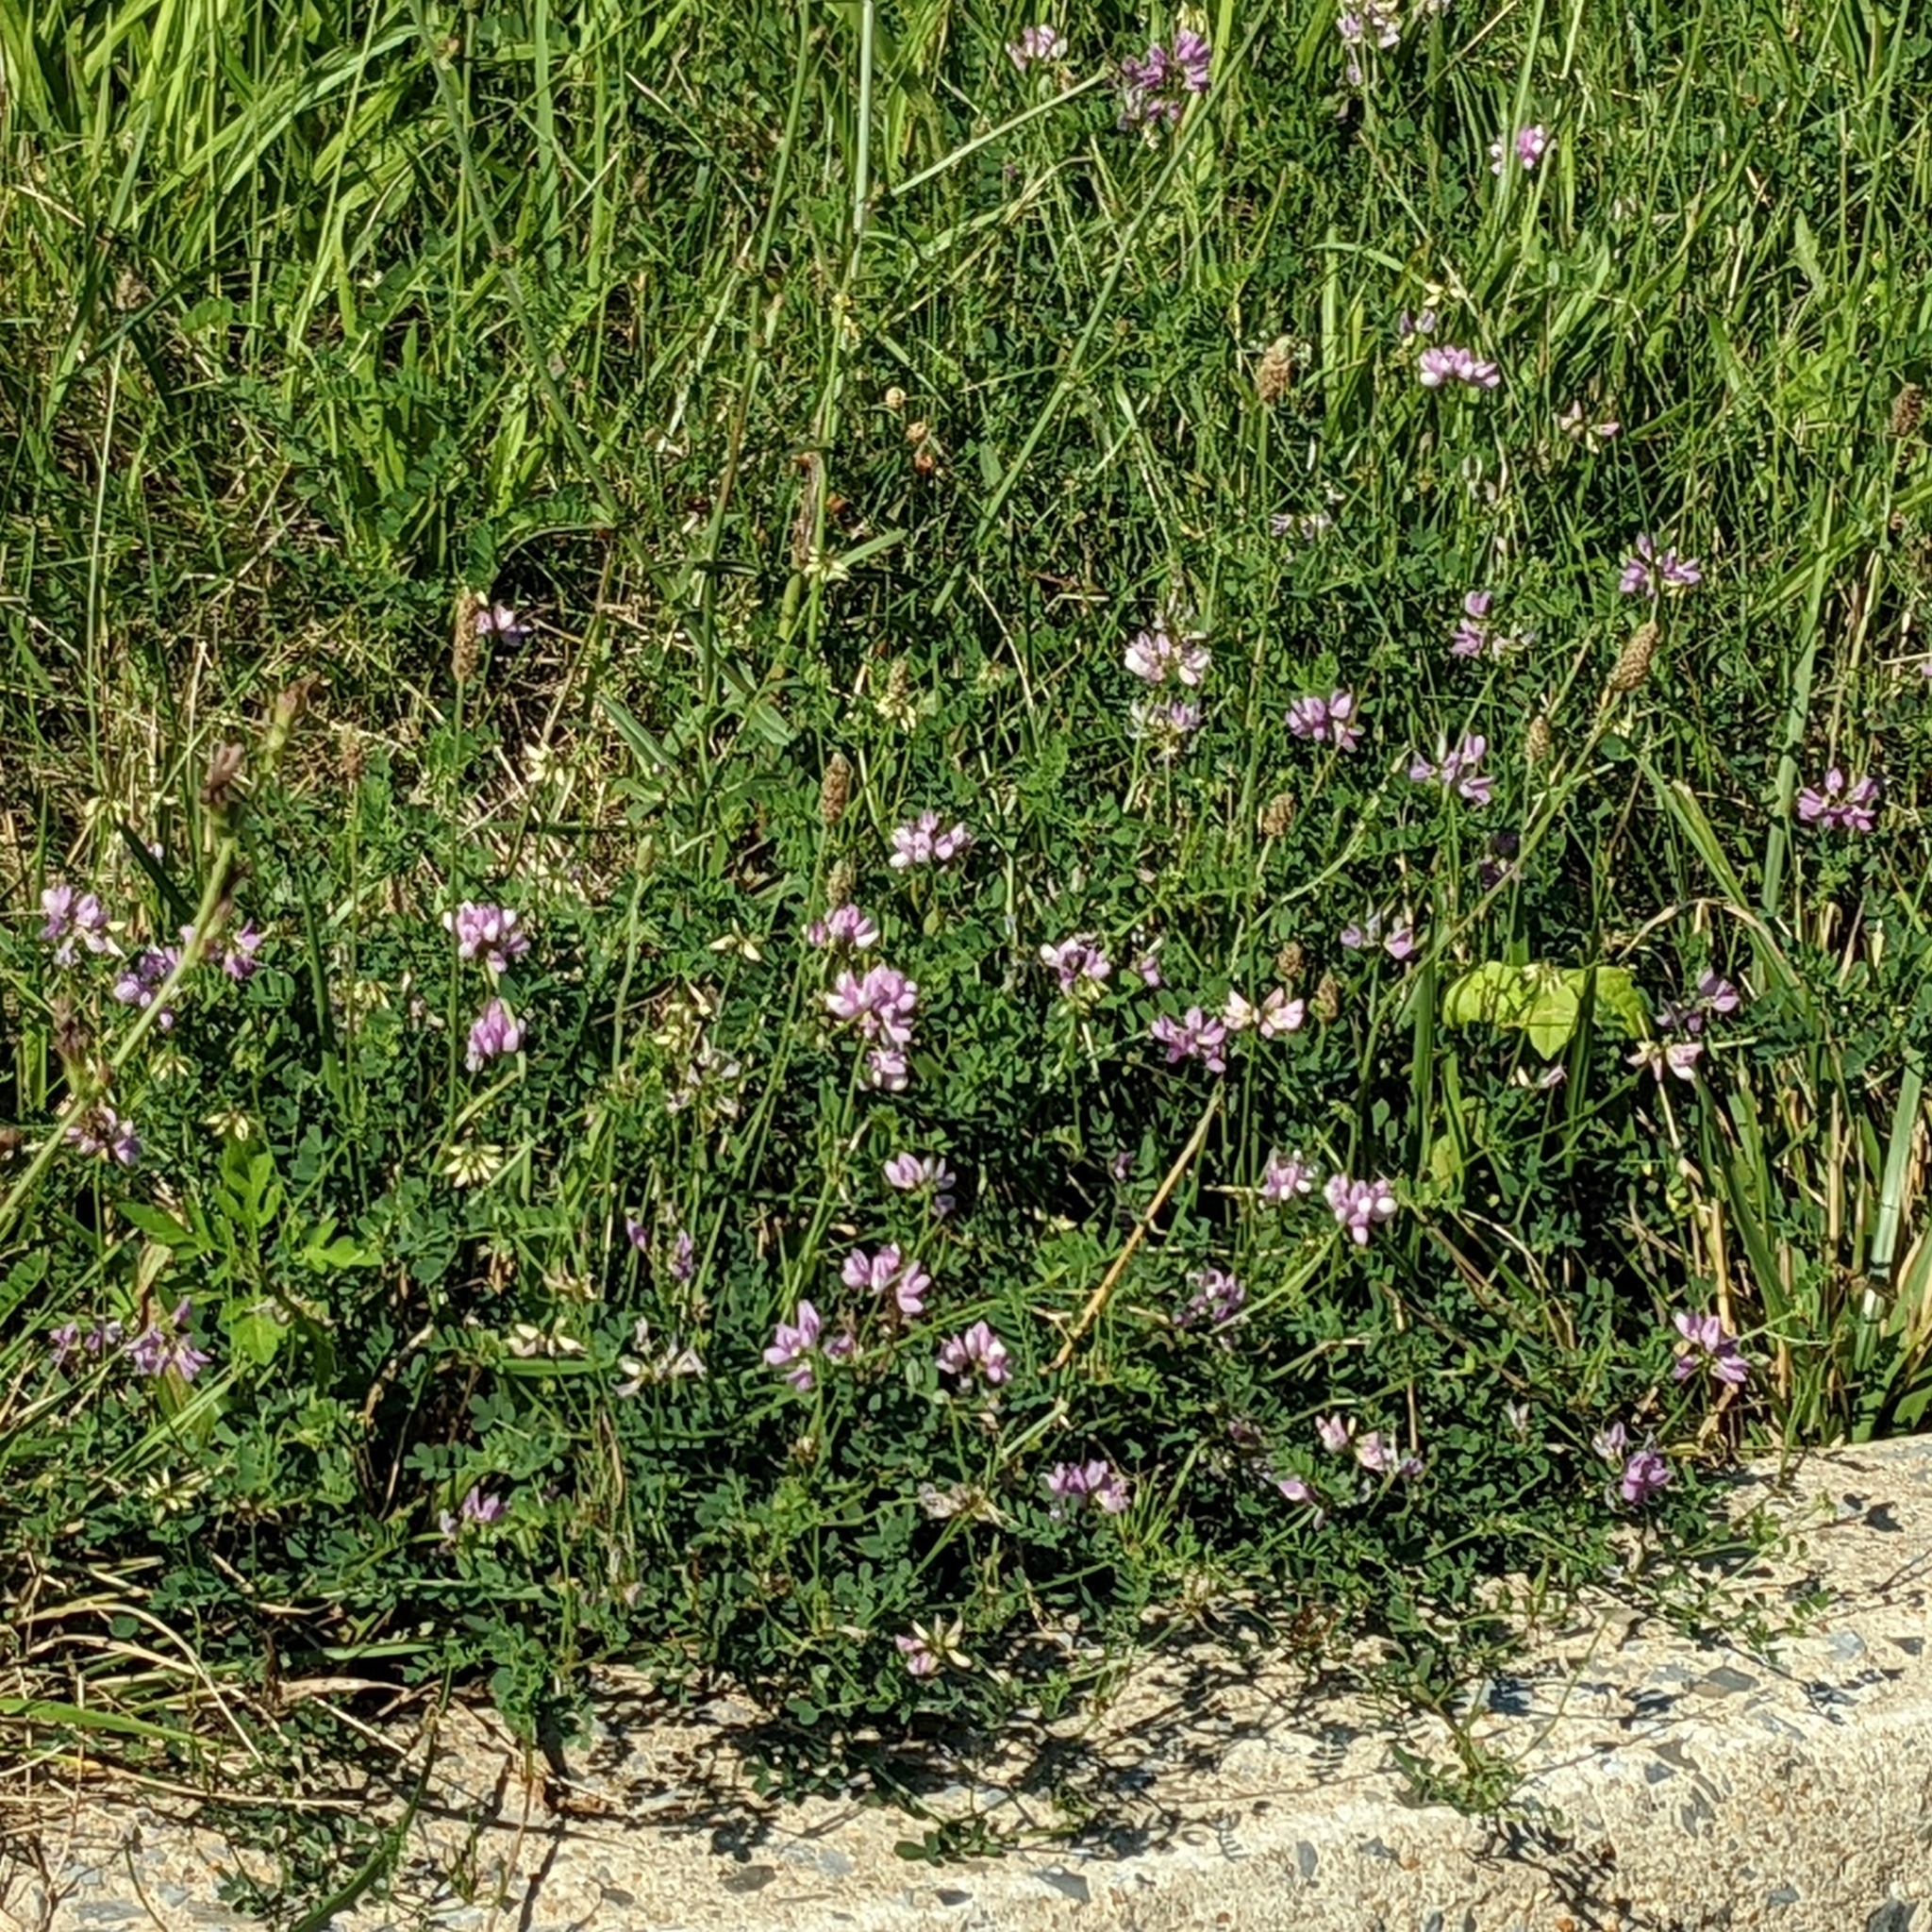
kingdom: Plantae
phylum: Tracheophyta
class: Magnoliopsida
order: Fabales
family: Fabaceae
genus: Coronilla
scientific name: Coronilla varia
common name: Crownvetch
